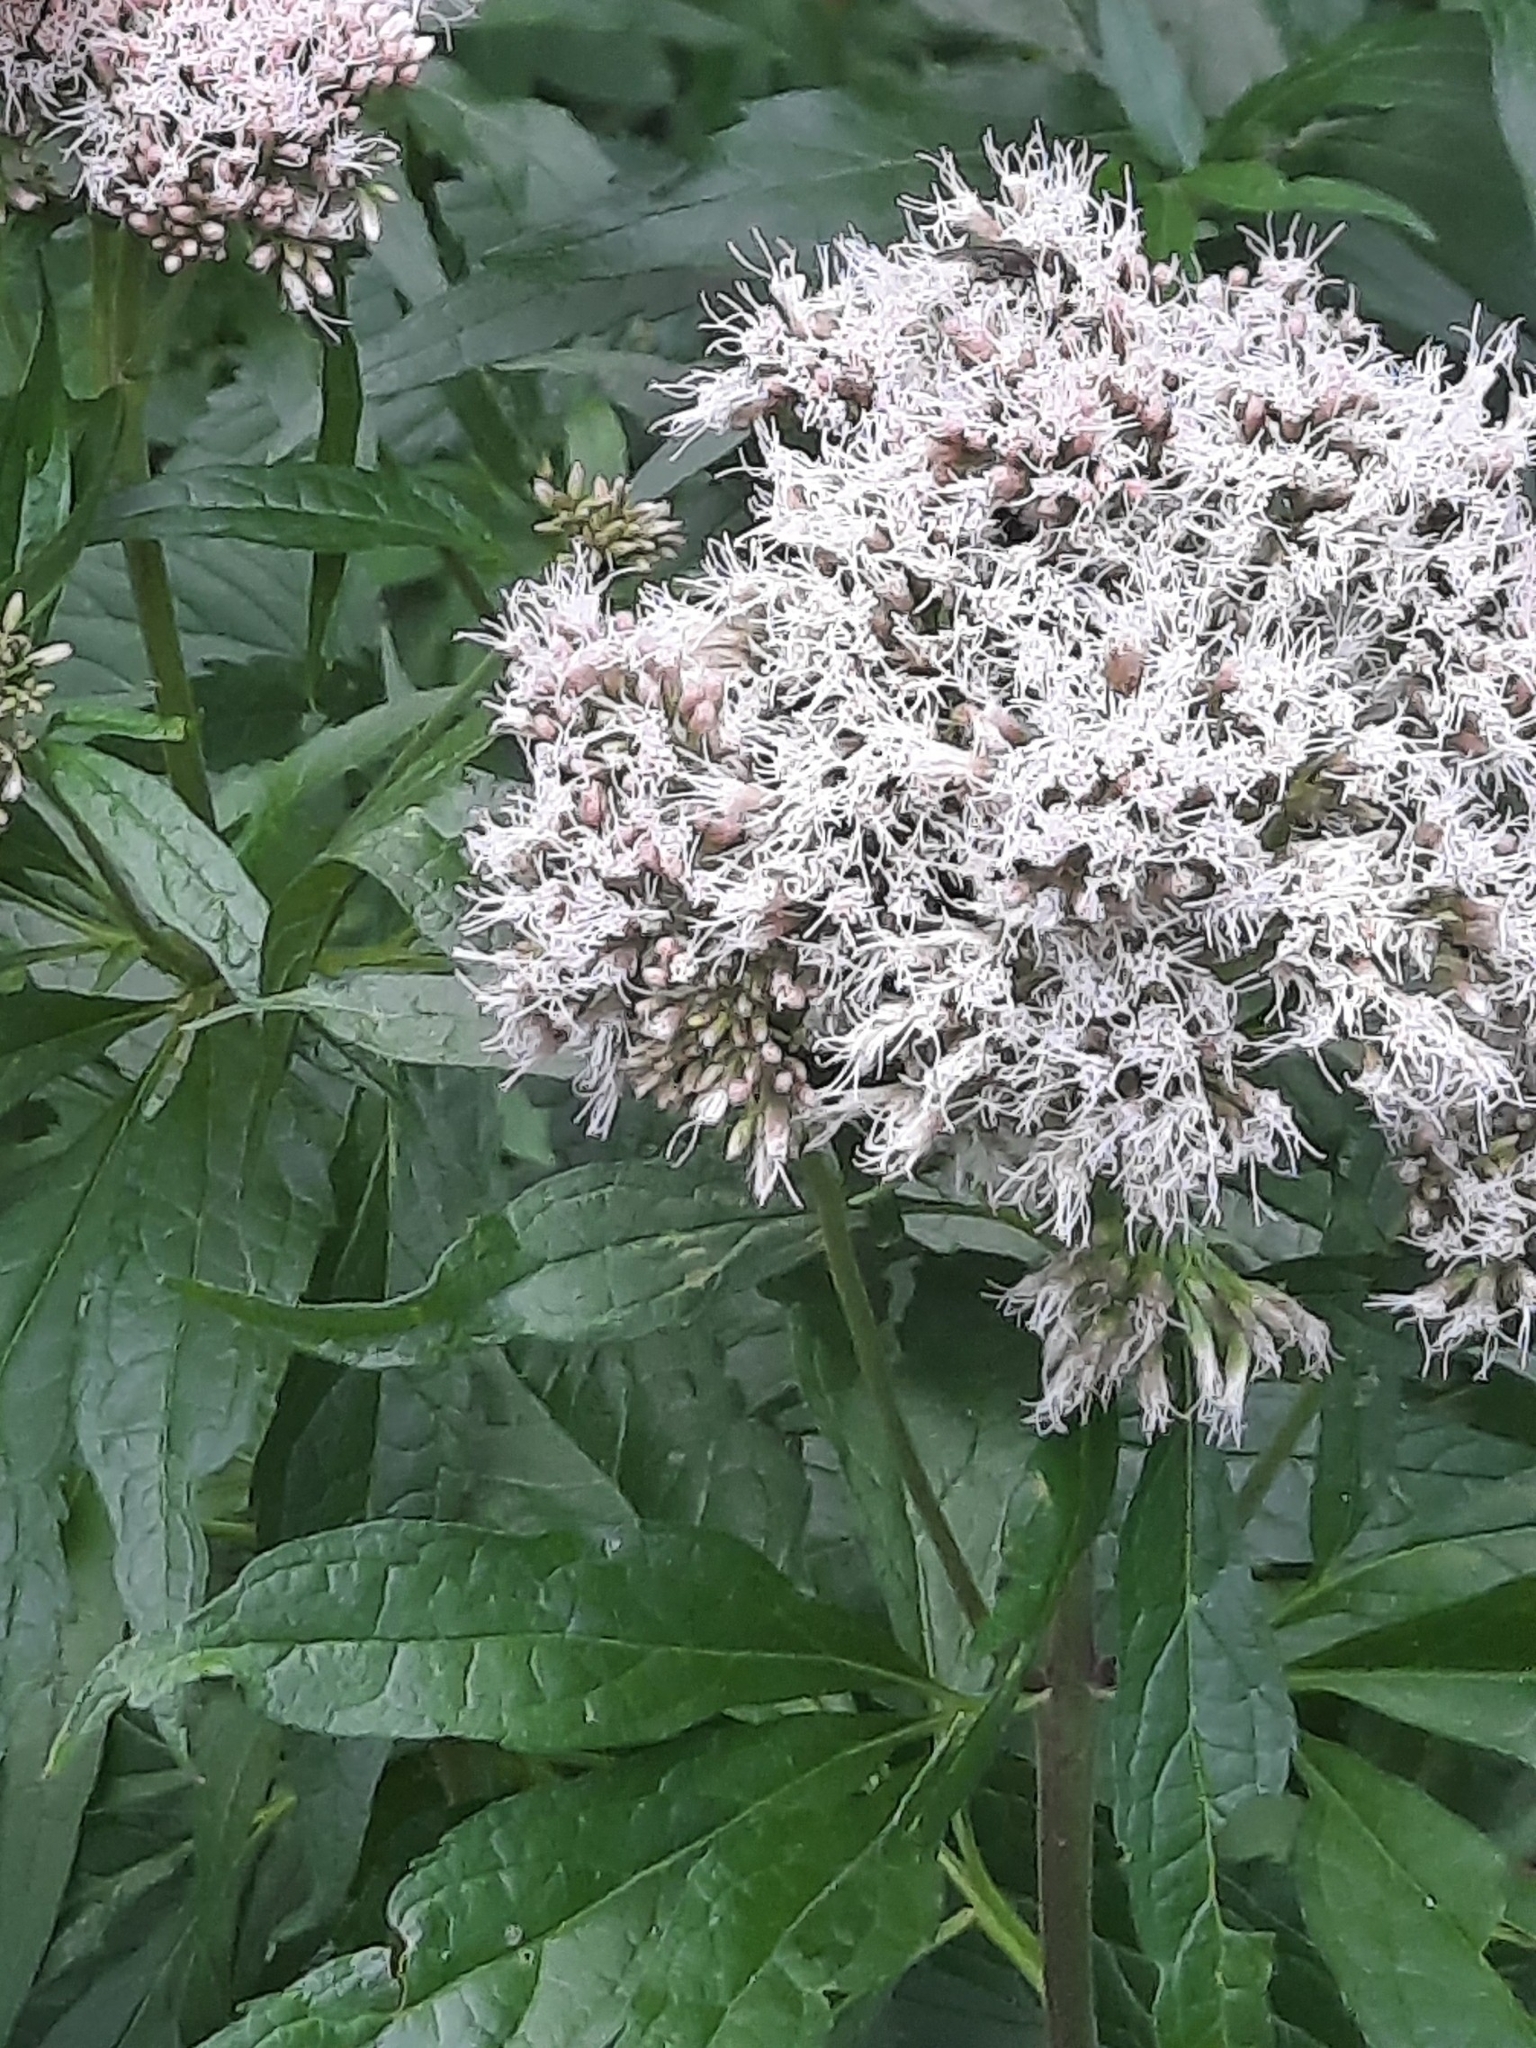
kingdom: Plantae
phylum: Tracheophyta
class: Magnoliopsida
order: Asterales
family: Asteraceae
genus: Eupatorium
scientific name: Eupatorium cannabinum
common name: Hemp-agrimony
